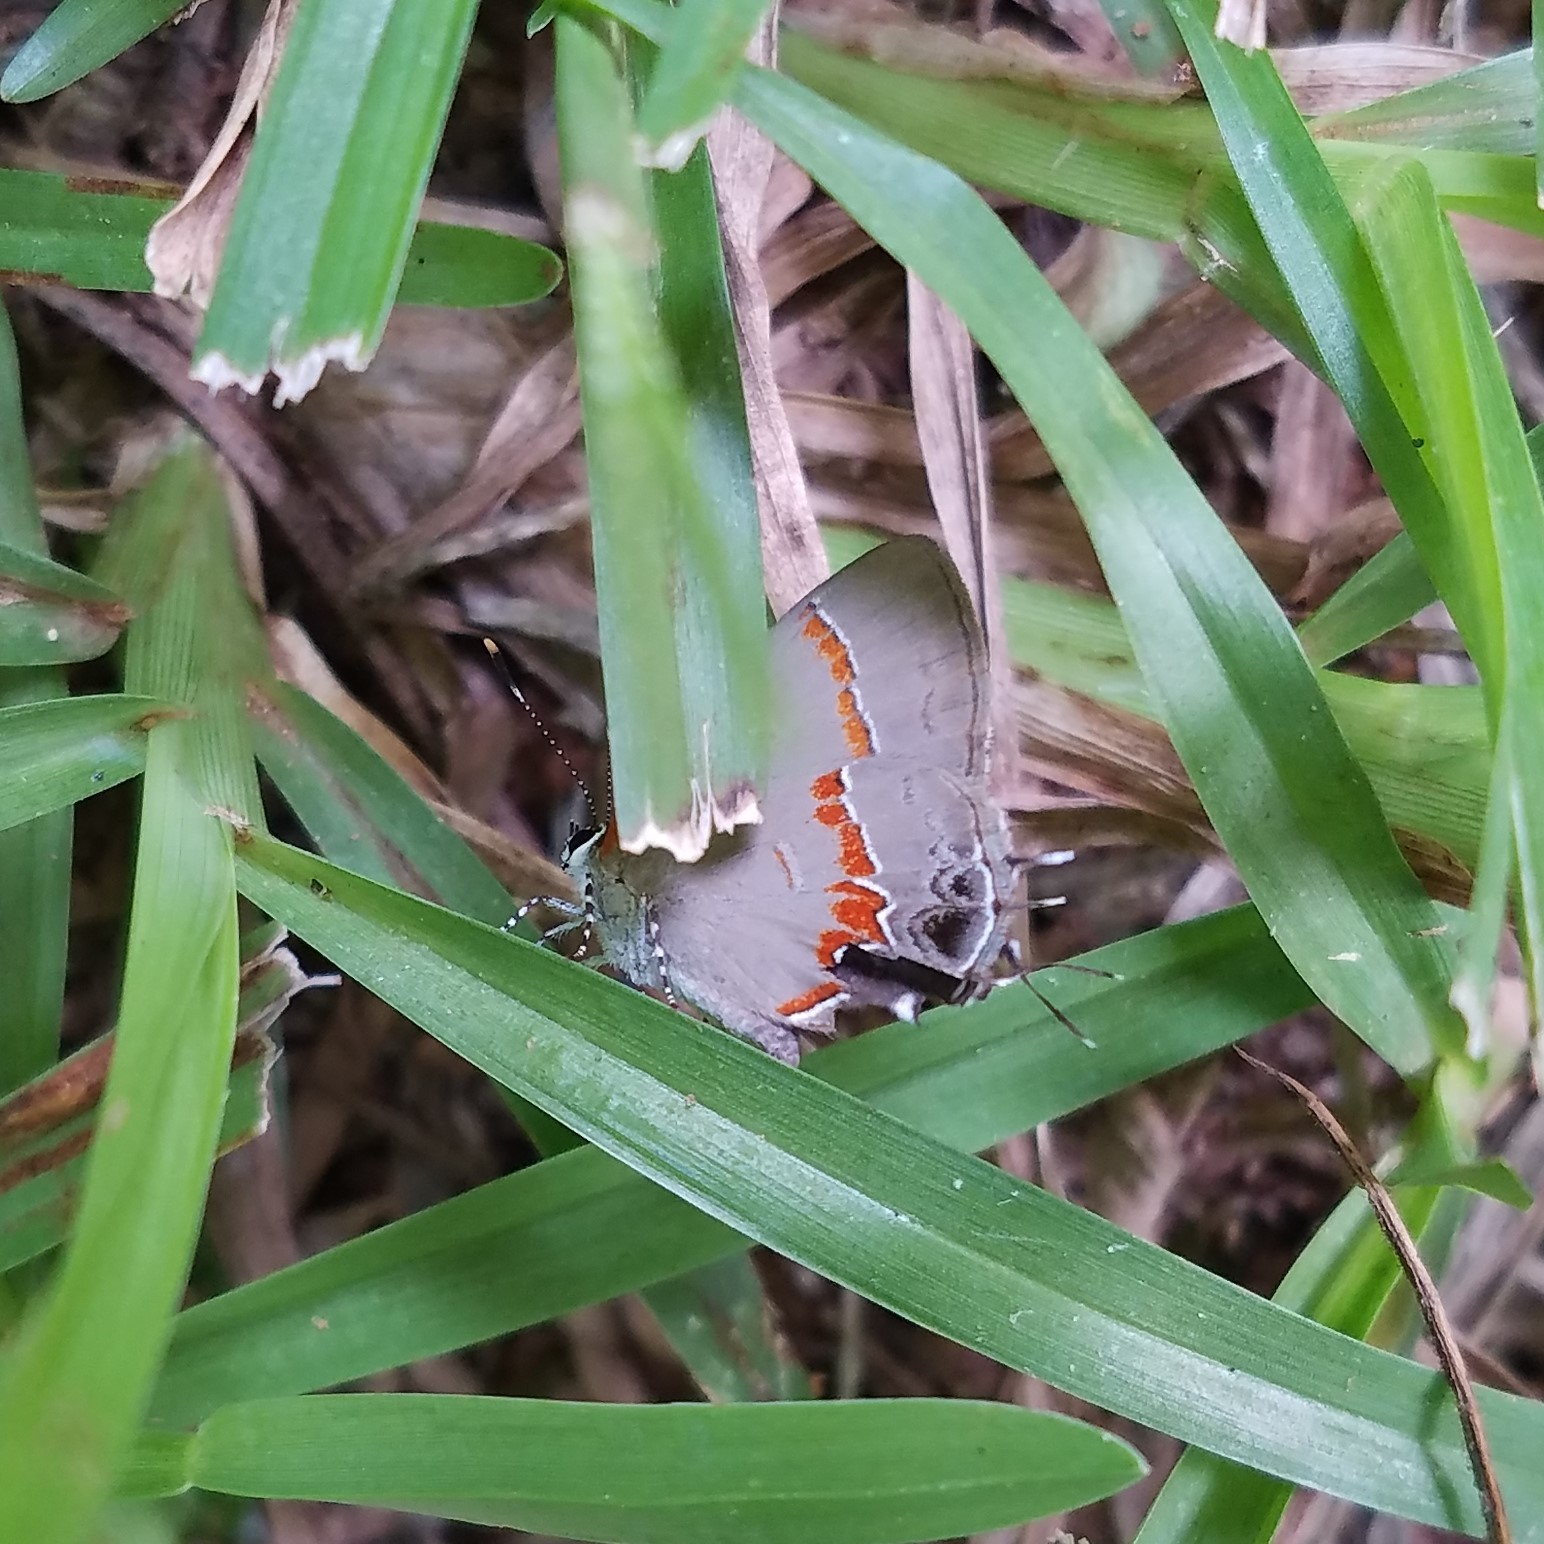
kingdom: Animalia
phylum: Arthropoda
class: Insecta
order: Lepidoptera
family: Lycaenidae
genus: Calycopis
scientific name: Calycopis cecrops
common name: Red-banded hairstreak
